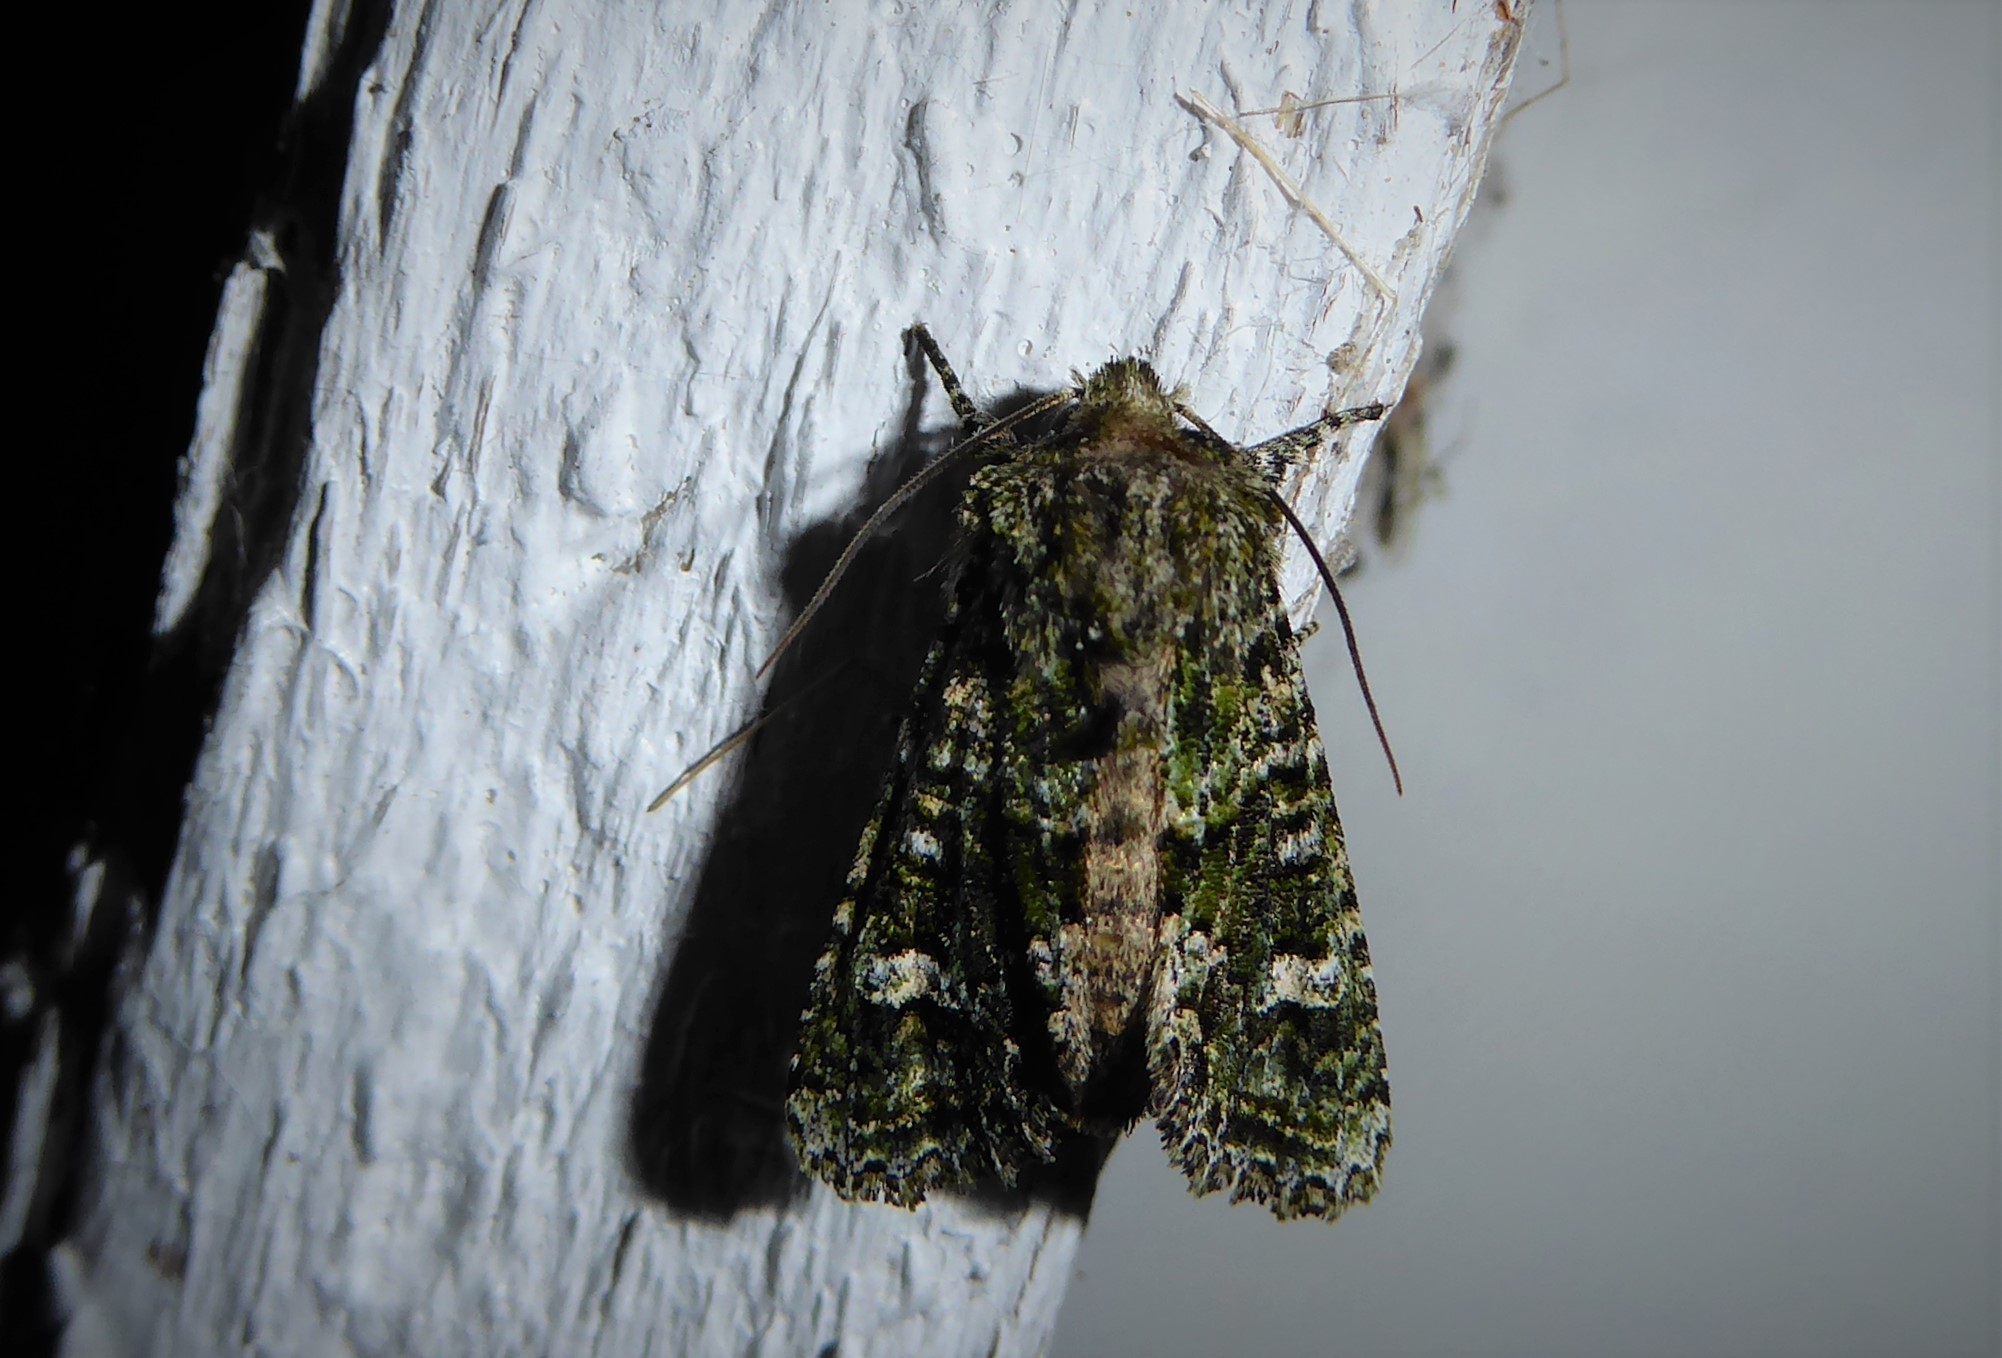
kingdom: Animalia
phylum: Arthropoda
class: Insecta
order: Lepidoptera
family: Noctuidae
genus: Ichneutica
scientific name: Ichneutica
